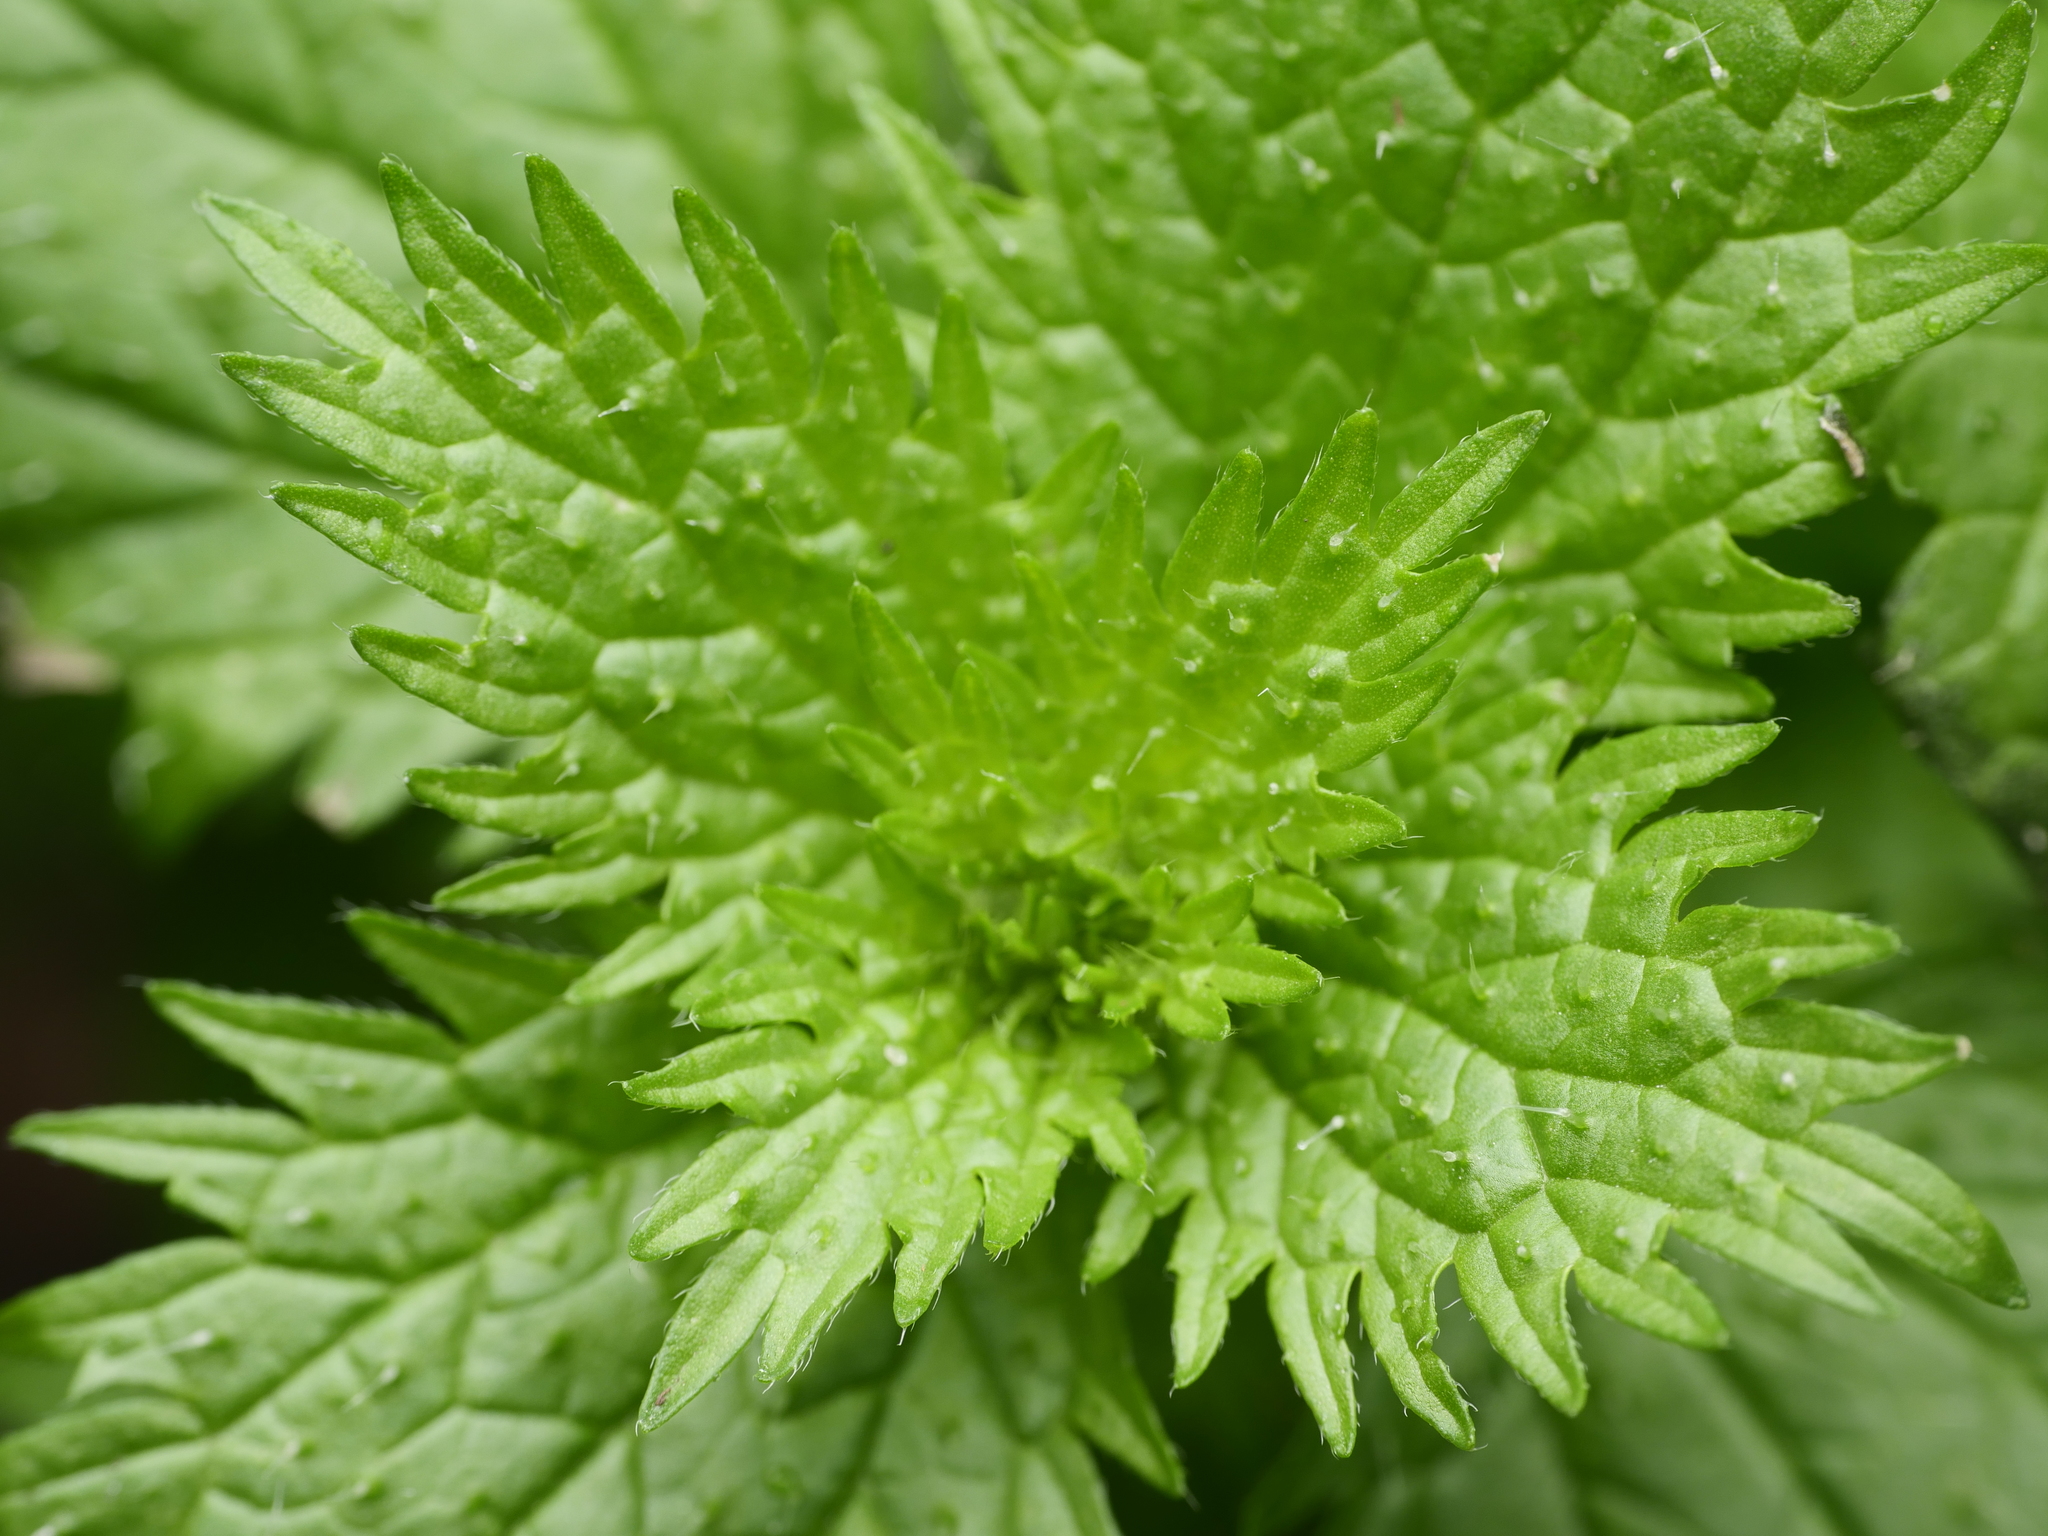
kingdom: Plantae
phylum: Tracheophyta
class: Magnoliopsida
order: Rosales
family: Urticaceae
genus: Urtica
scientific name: Urtica urens
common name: Dwarf nettle
